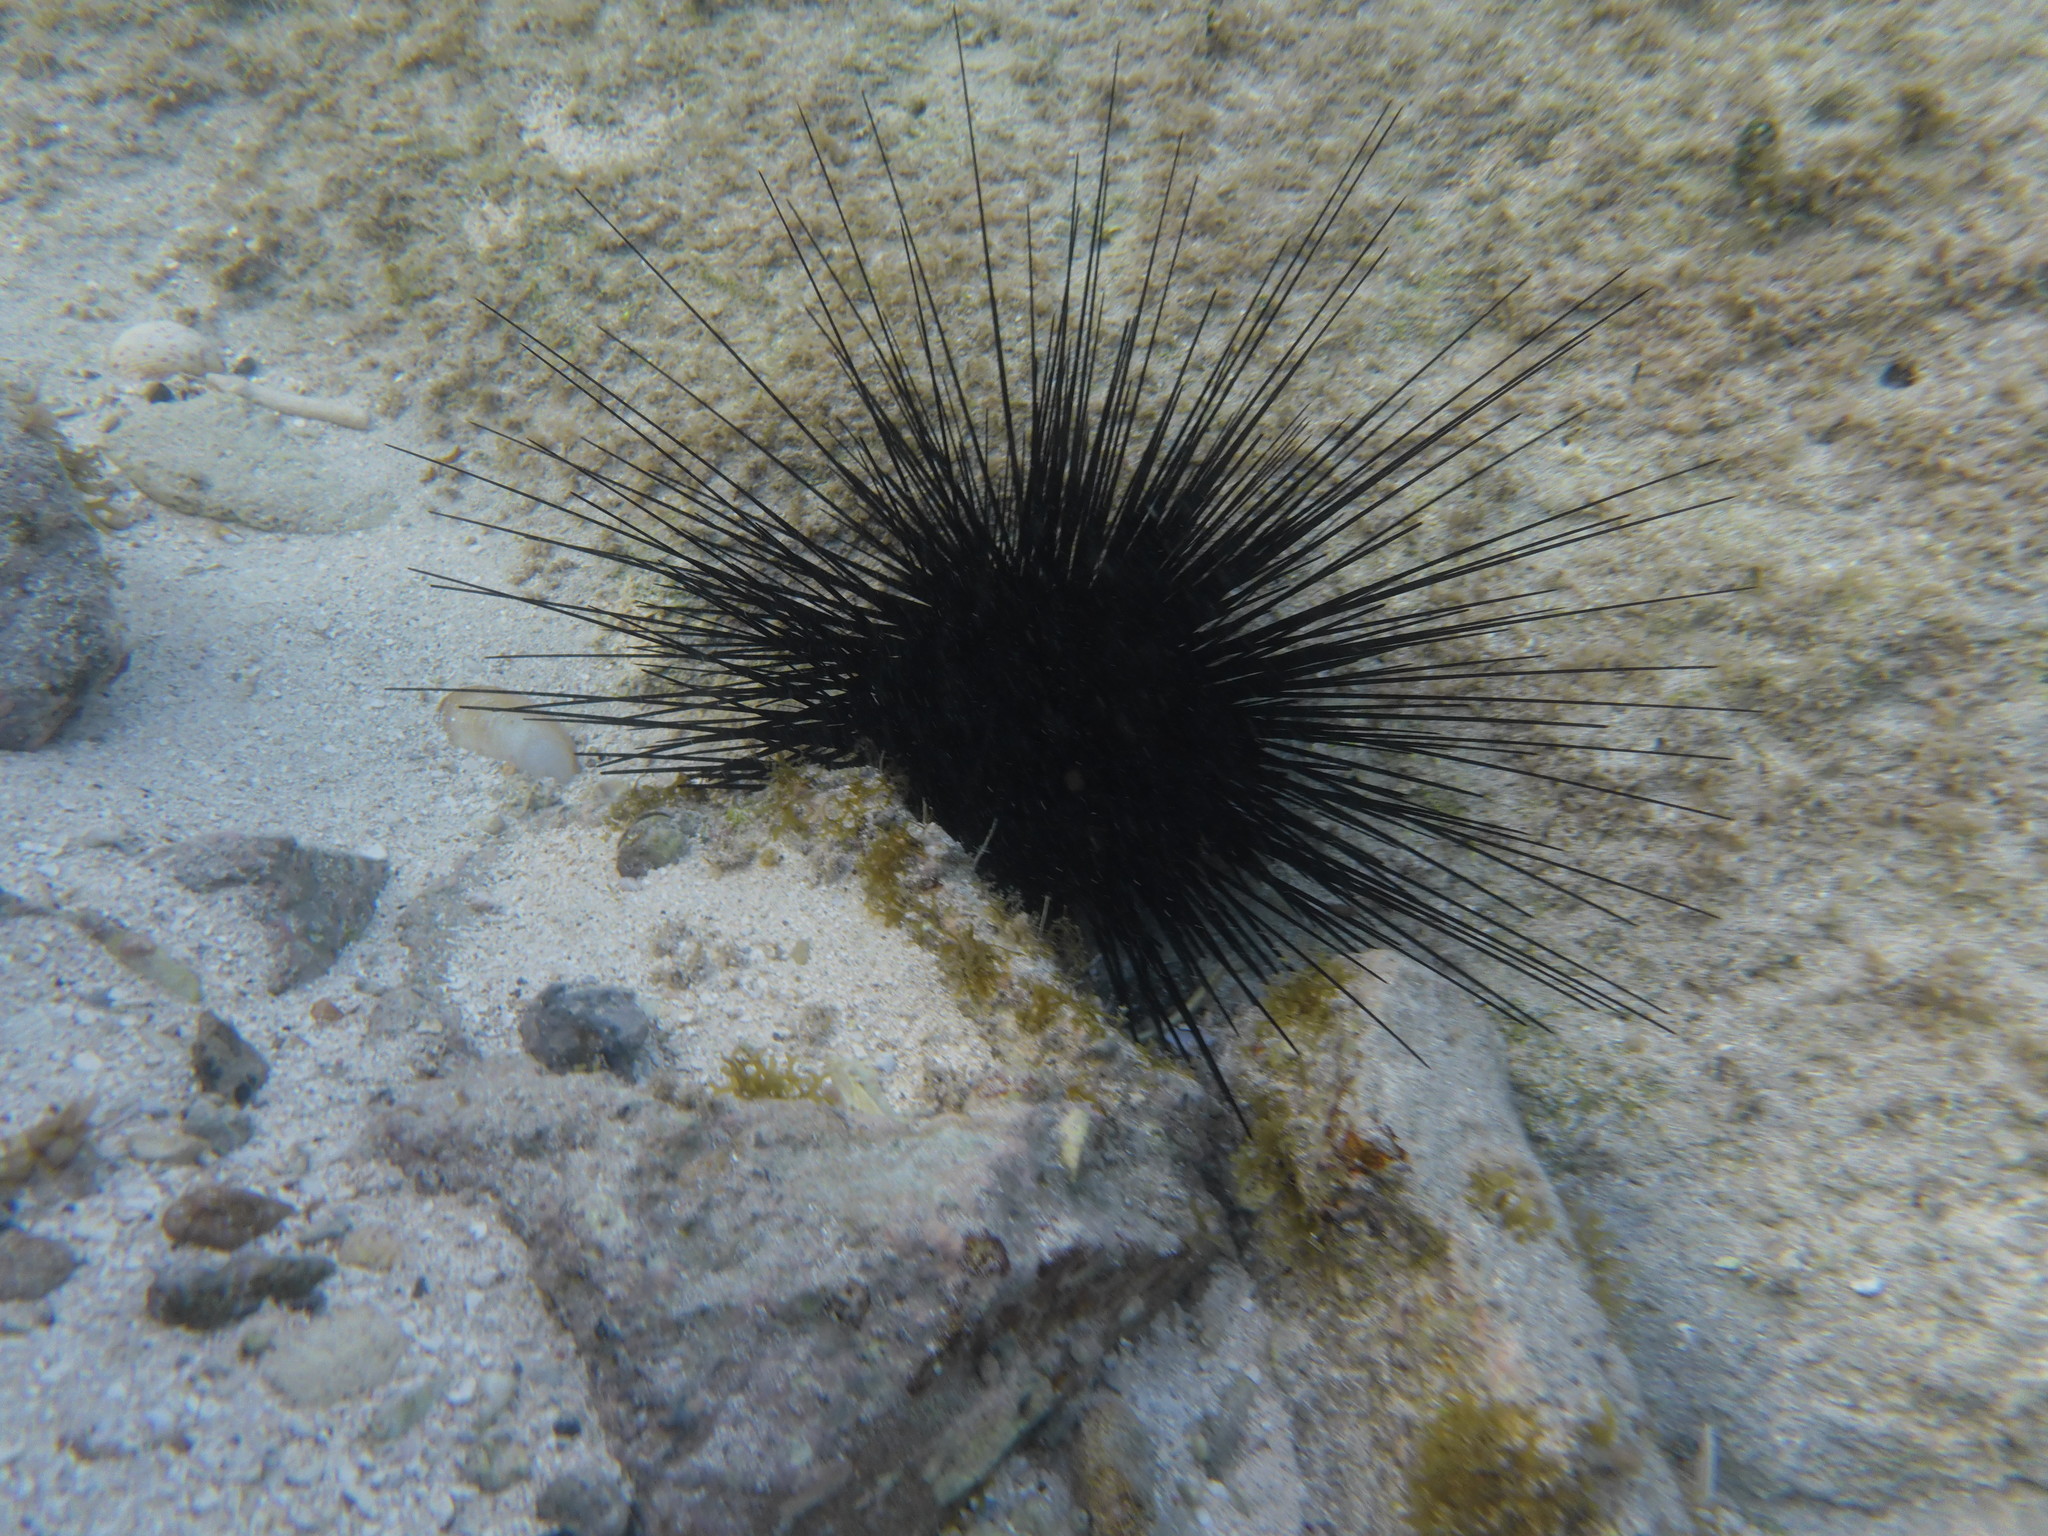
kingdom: Animalia
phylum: Echinodermata
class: Echinoidea
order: Diadematoida
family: Diadematidae
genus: Diadema
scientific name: Diadema antillarum
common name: Spiny urchin
